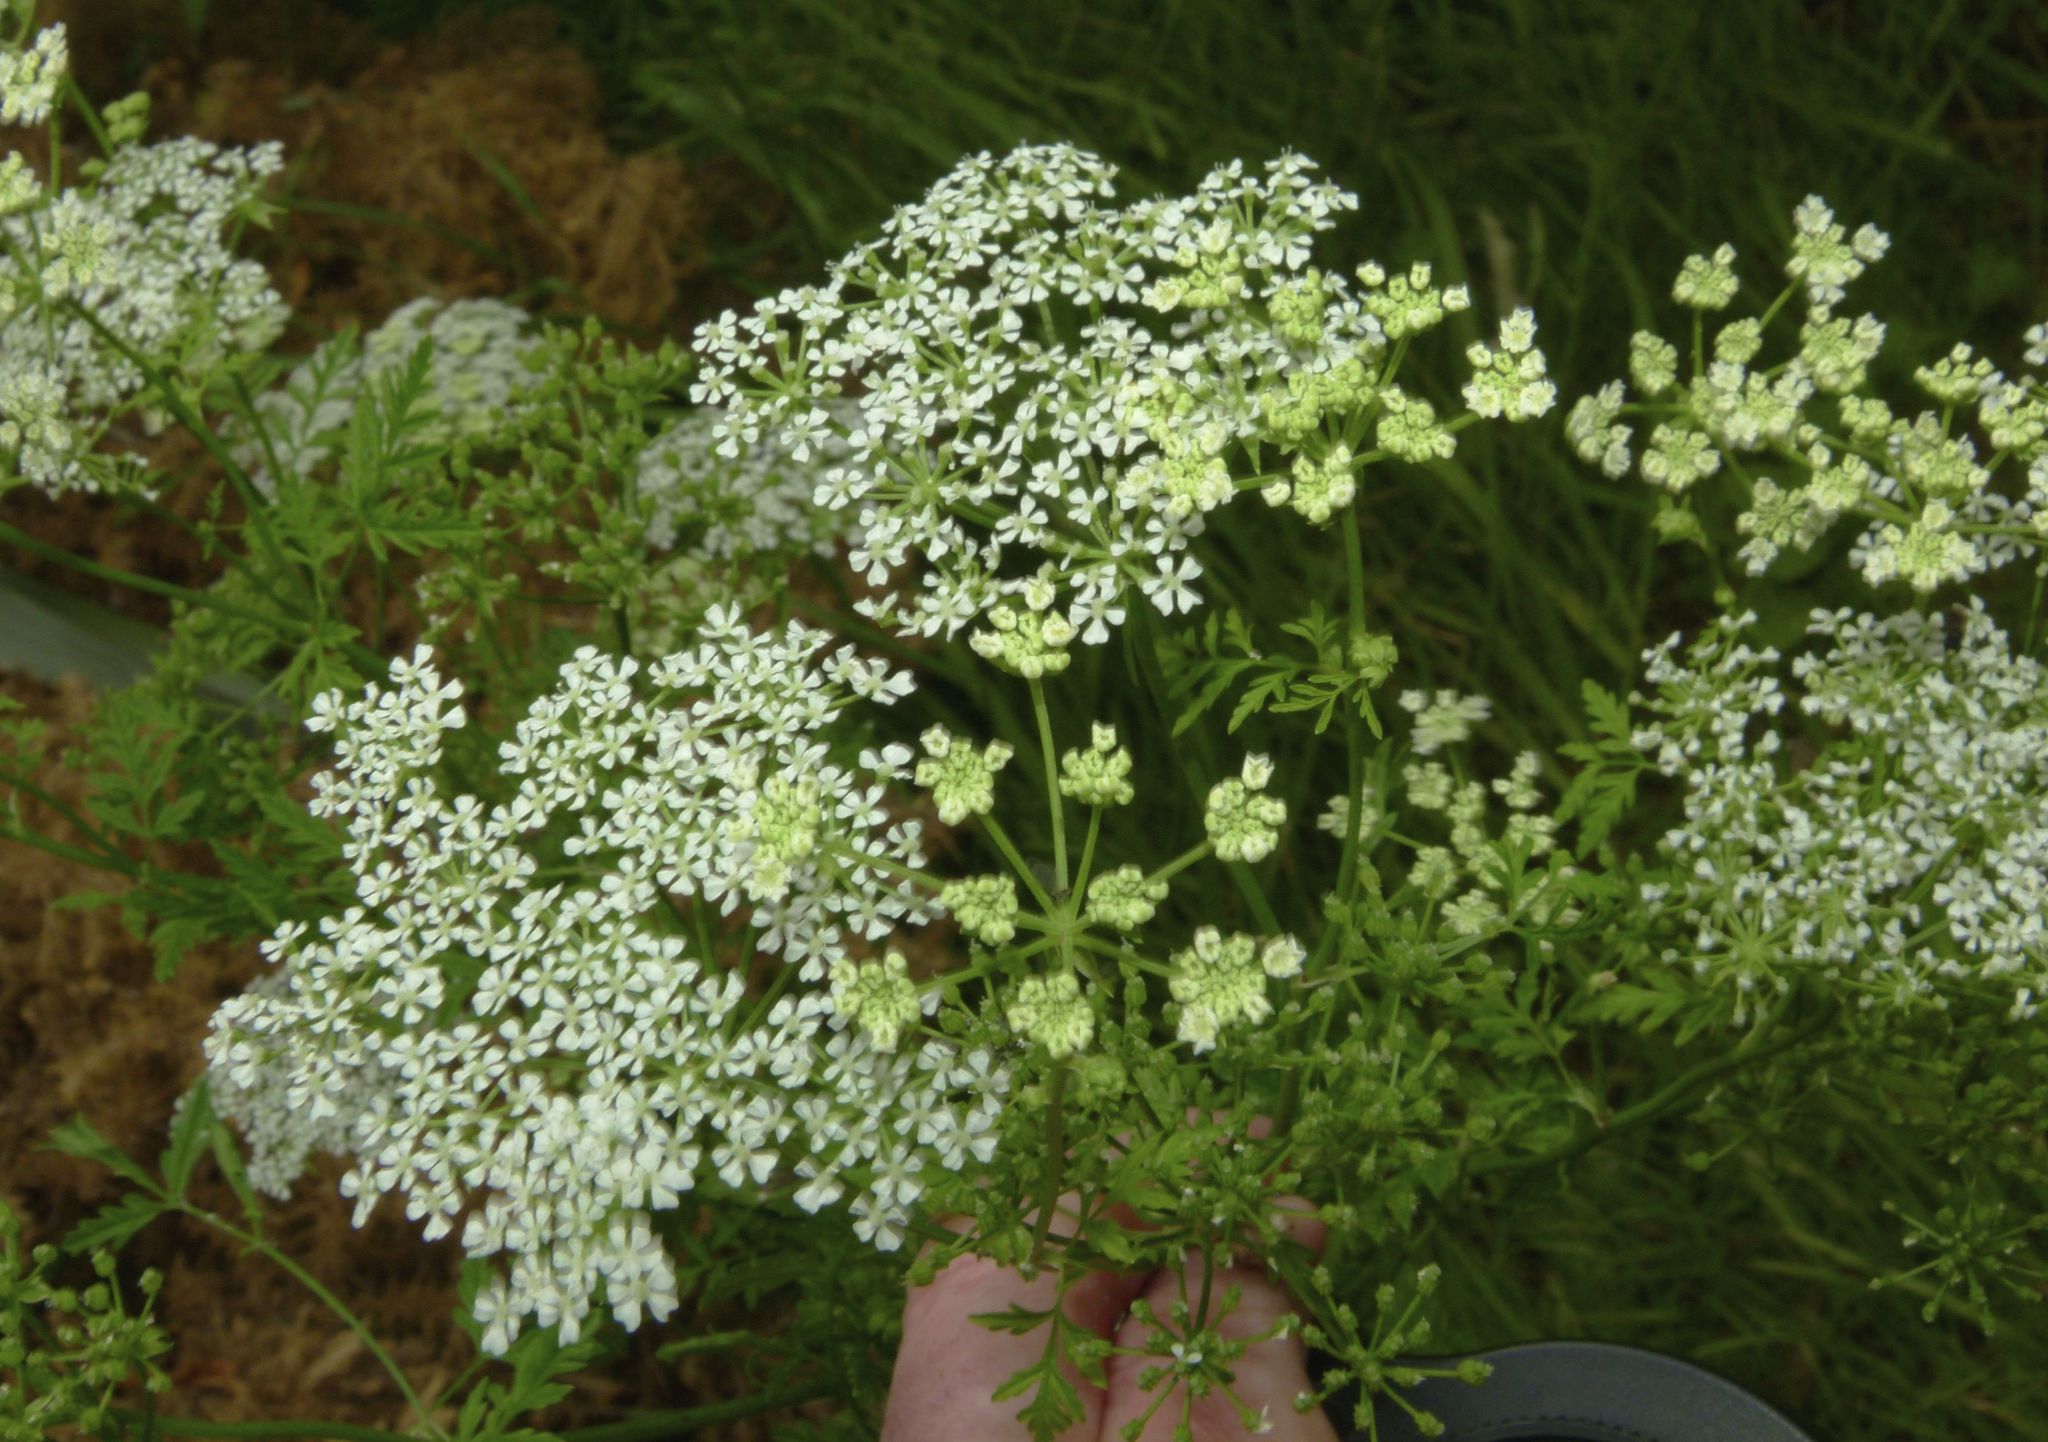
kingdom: Plantae
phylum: Tracheophyta
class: Magnoliopsida
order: Apiales
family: Apiaceae
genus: Conium
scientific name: Conium maculatum
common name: Hemlock
